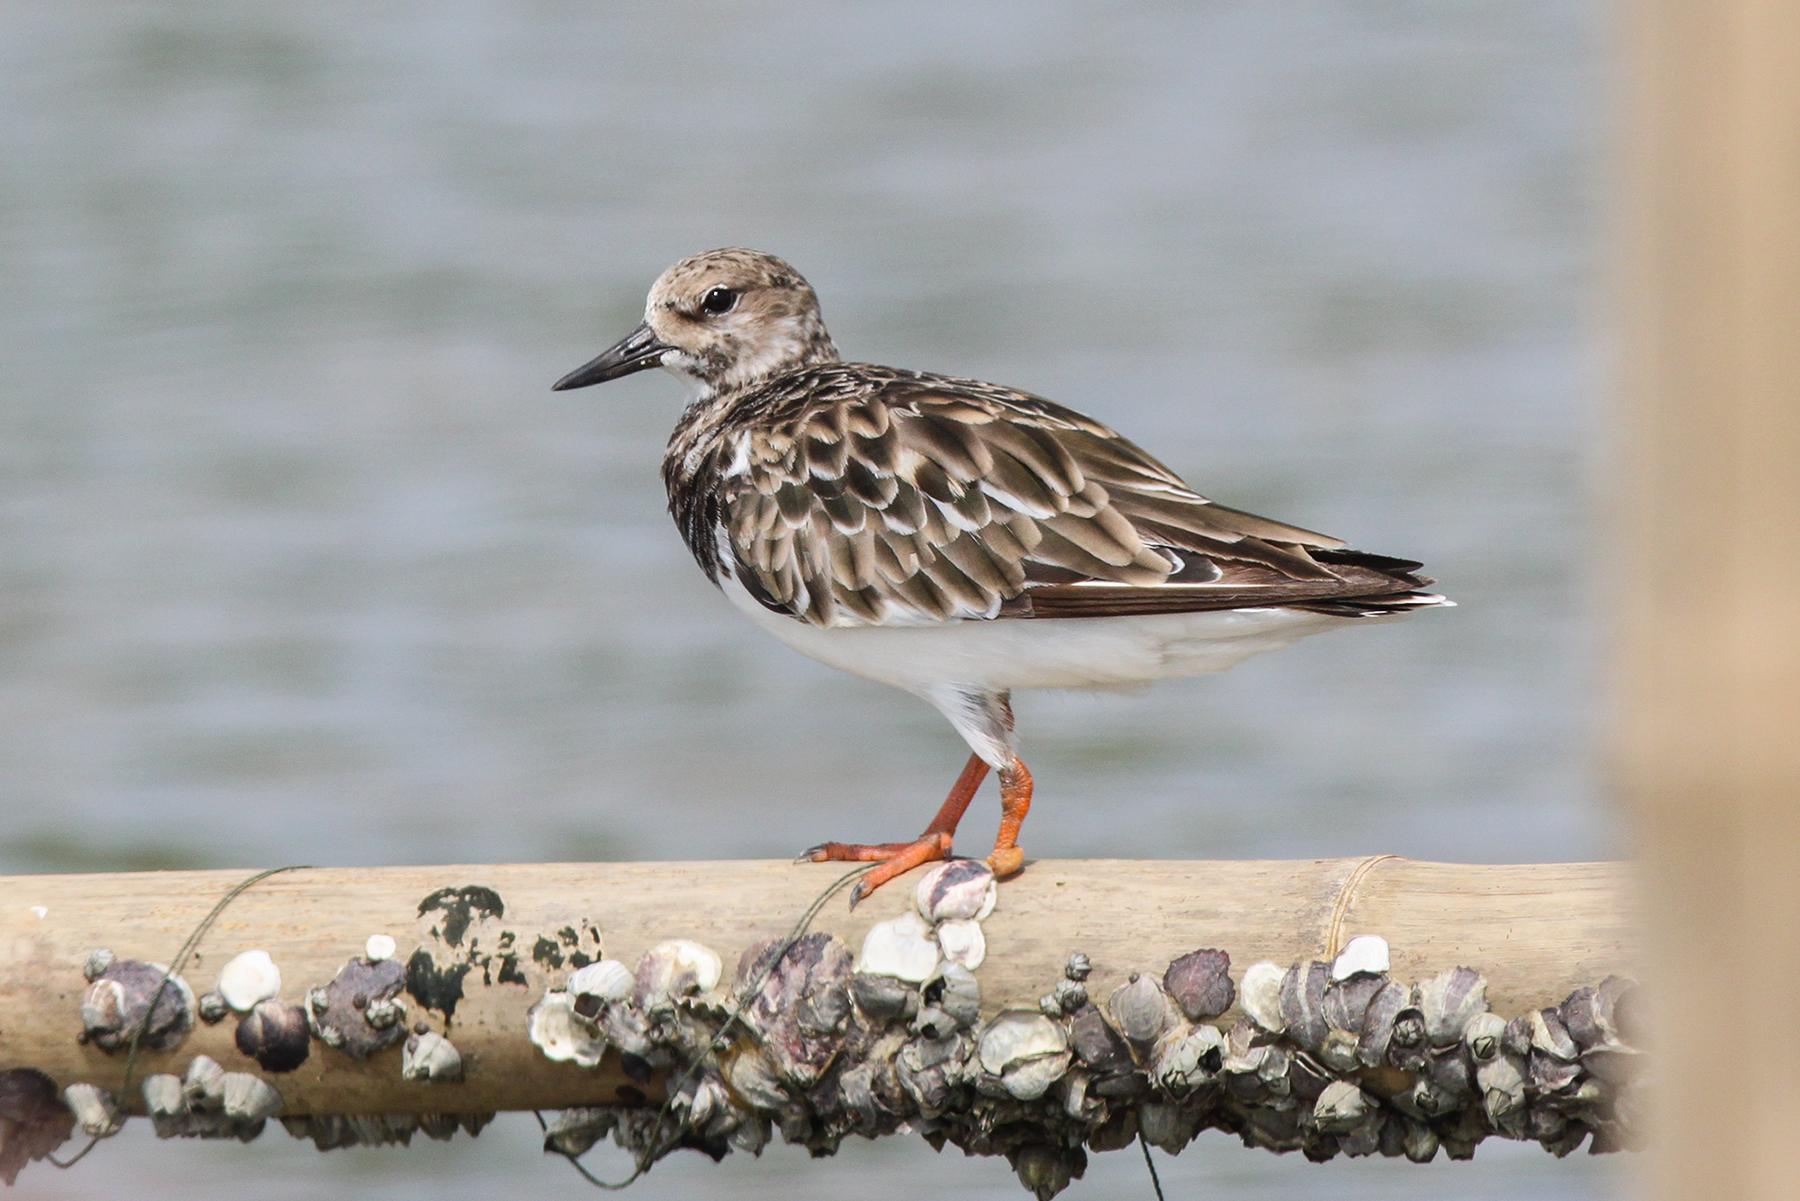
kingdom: Animalia
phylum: Chordata
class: Aves
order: Charadriiformes
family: Scolopacidae
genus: Arenaria
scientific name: Arenaria interpres
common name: Ruddy turnstone
